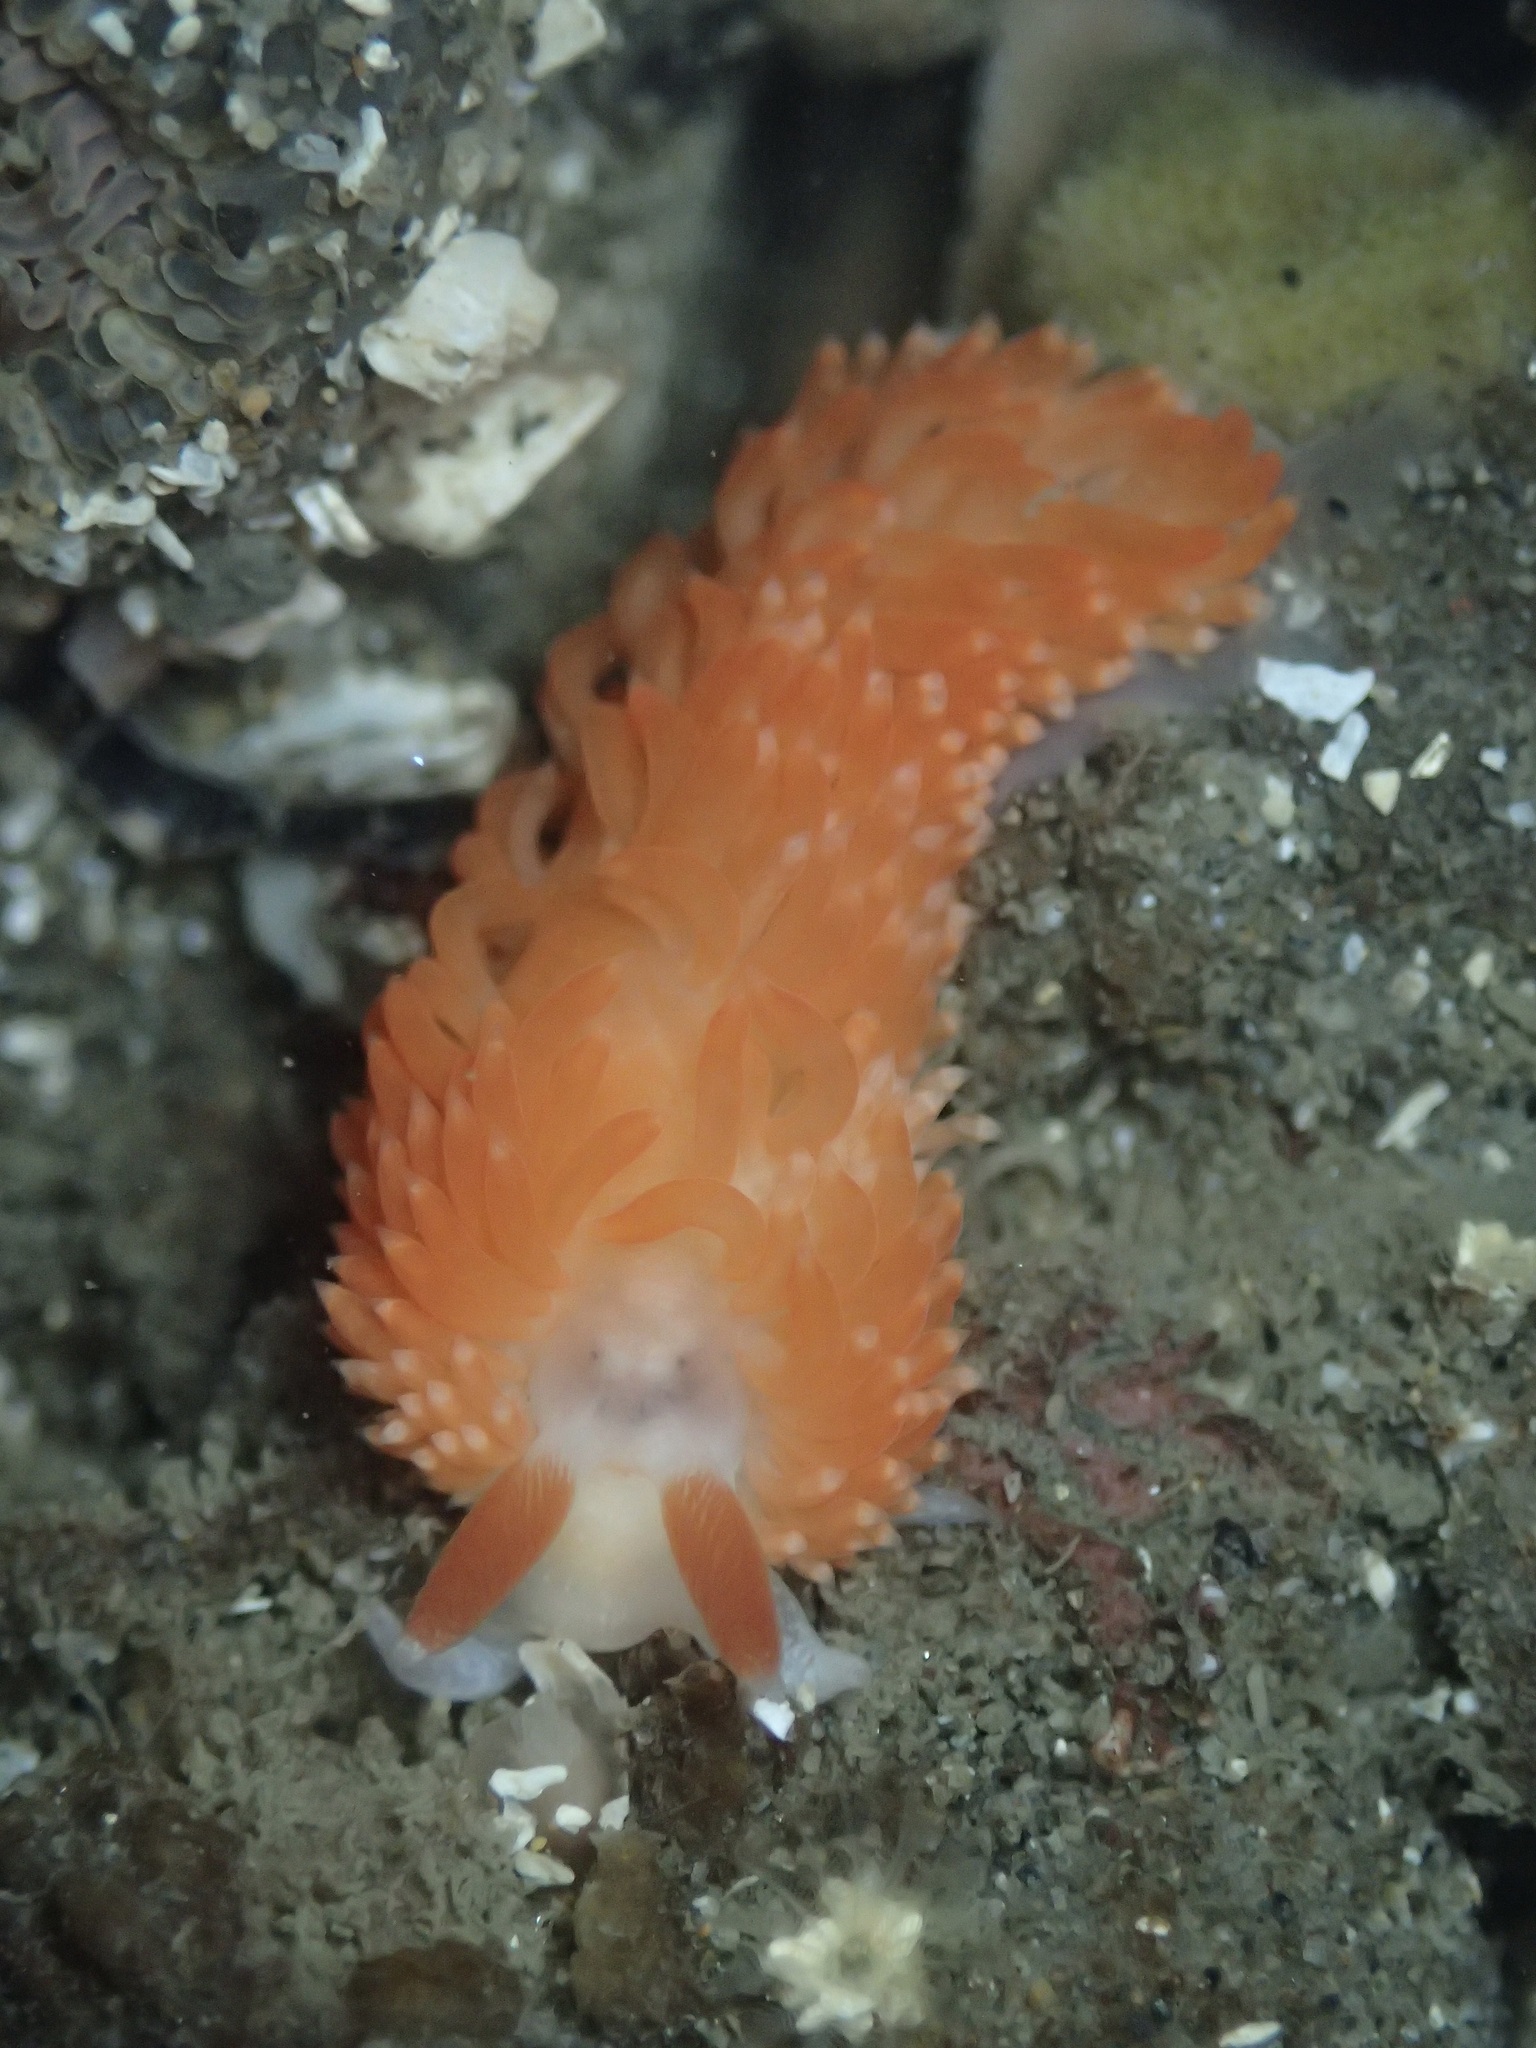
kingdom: Animalia
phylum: Mollusca
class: Gastropoda
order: Nudibranchia
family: Aeolidiidae
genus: Anteaeolidiella
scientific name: Anteaeolidiella oliviae
